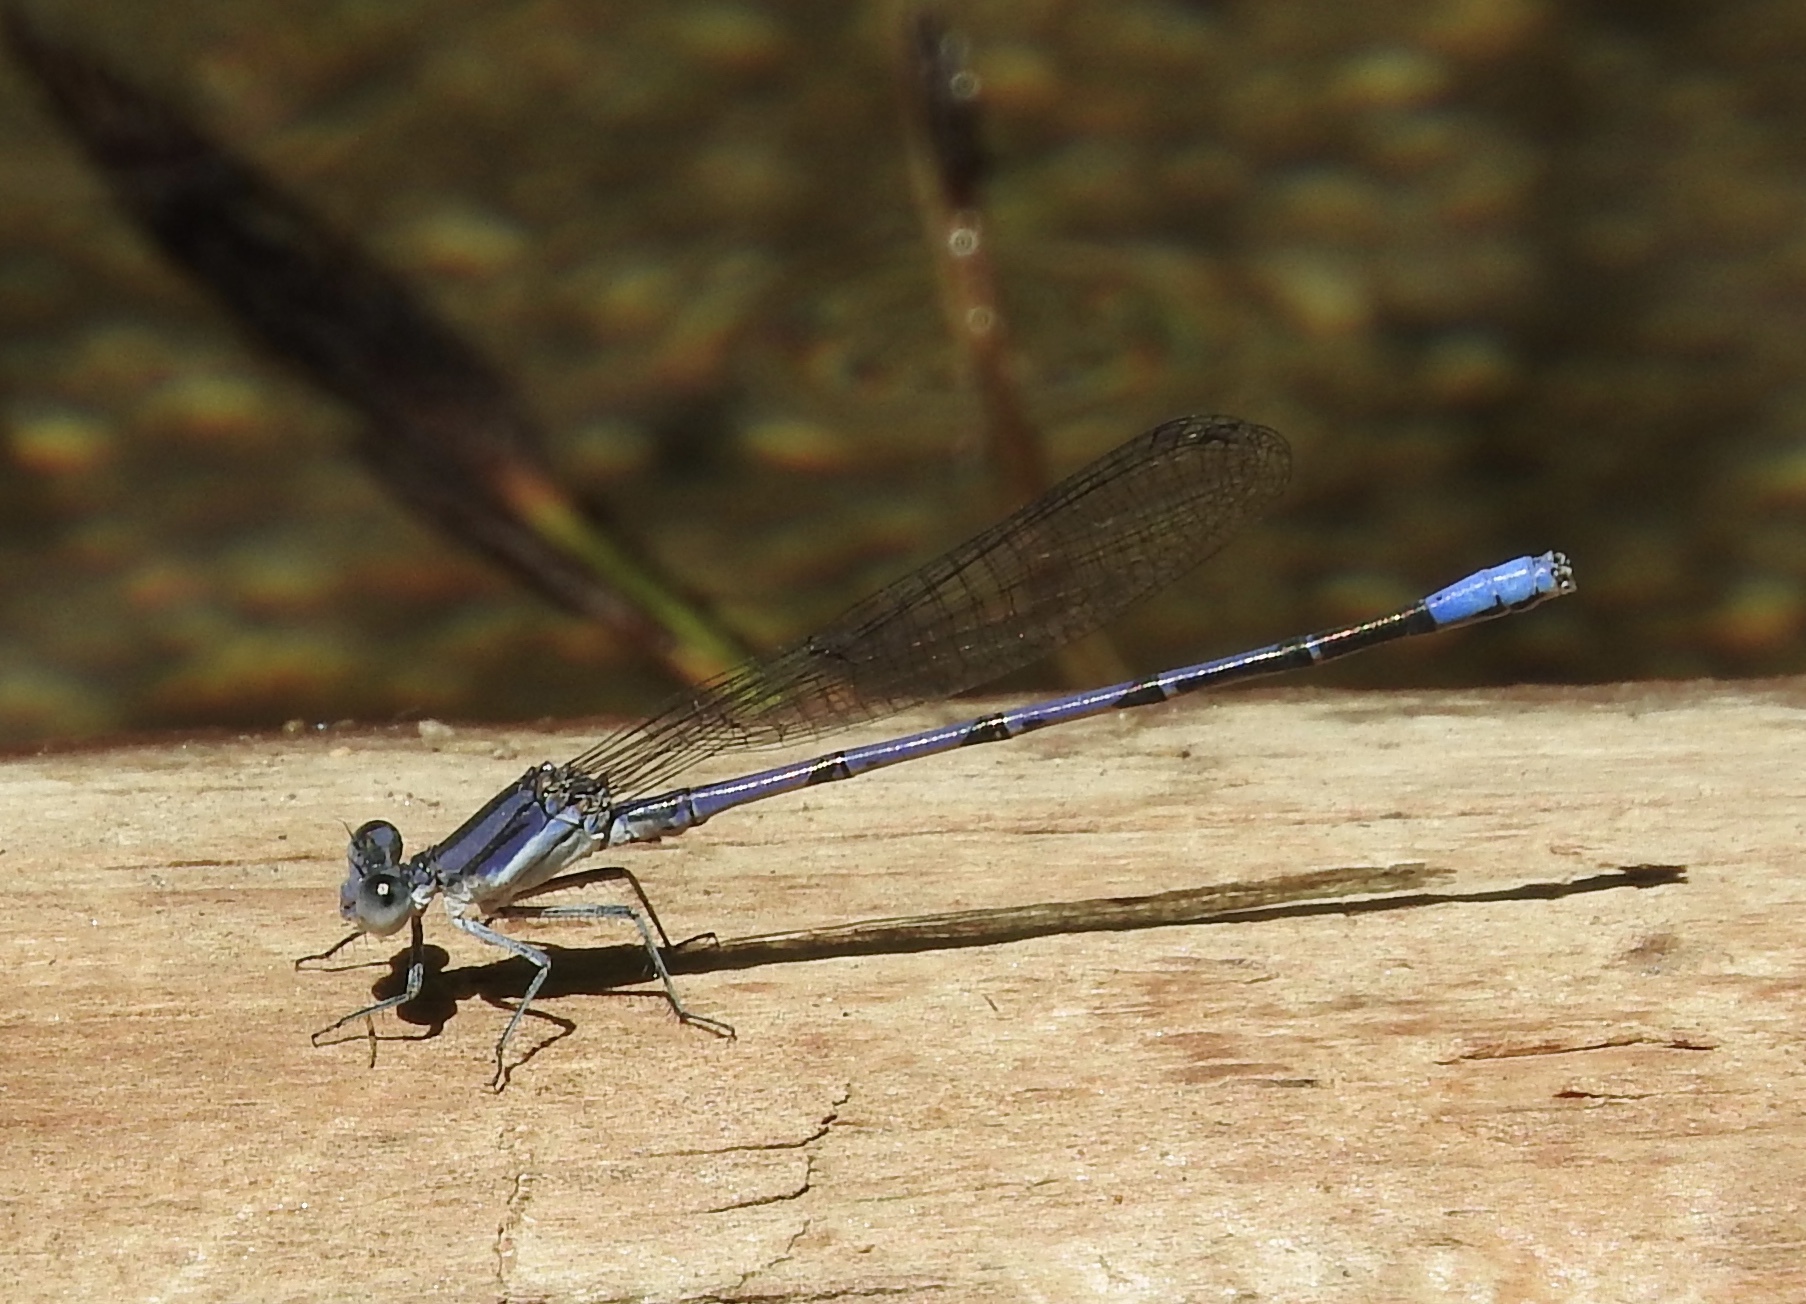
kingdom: Animalia
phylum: Arthropoda
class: Insecta
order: Odonata
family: Coenagrionidae
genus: Argia
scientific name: Argia hinei
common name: Lavender dancer
